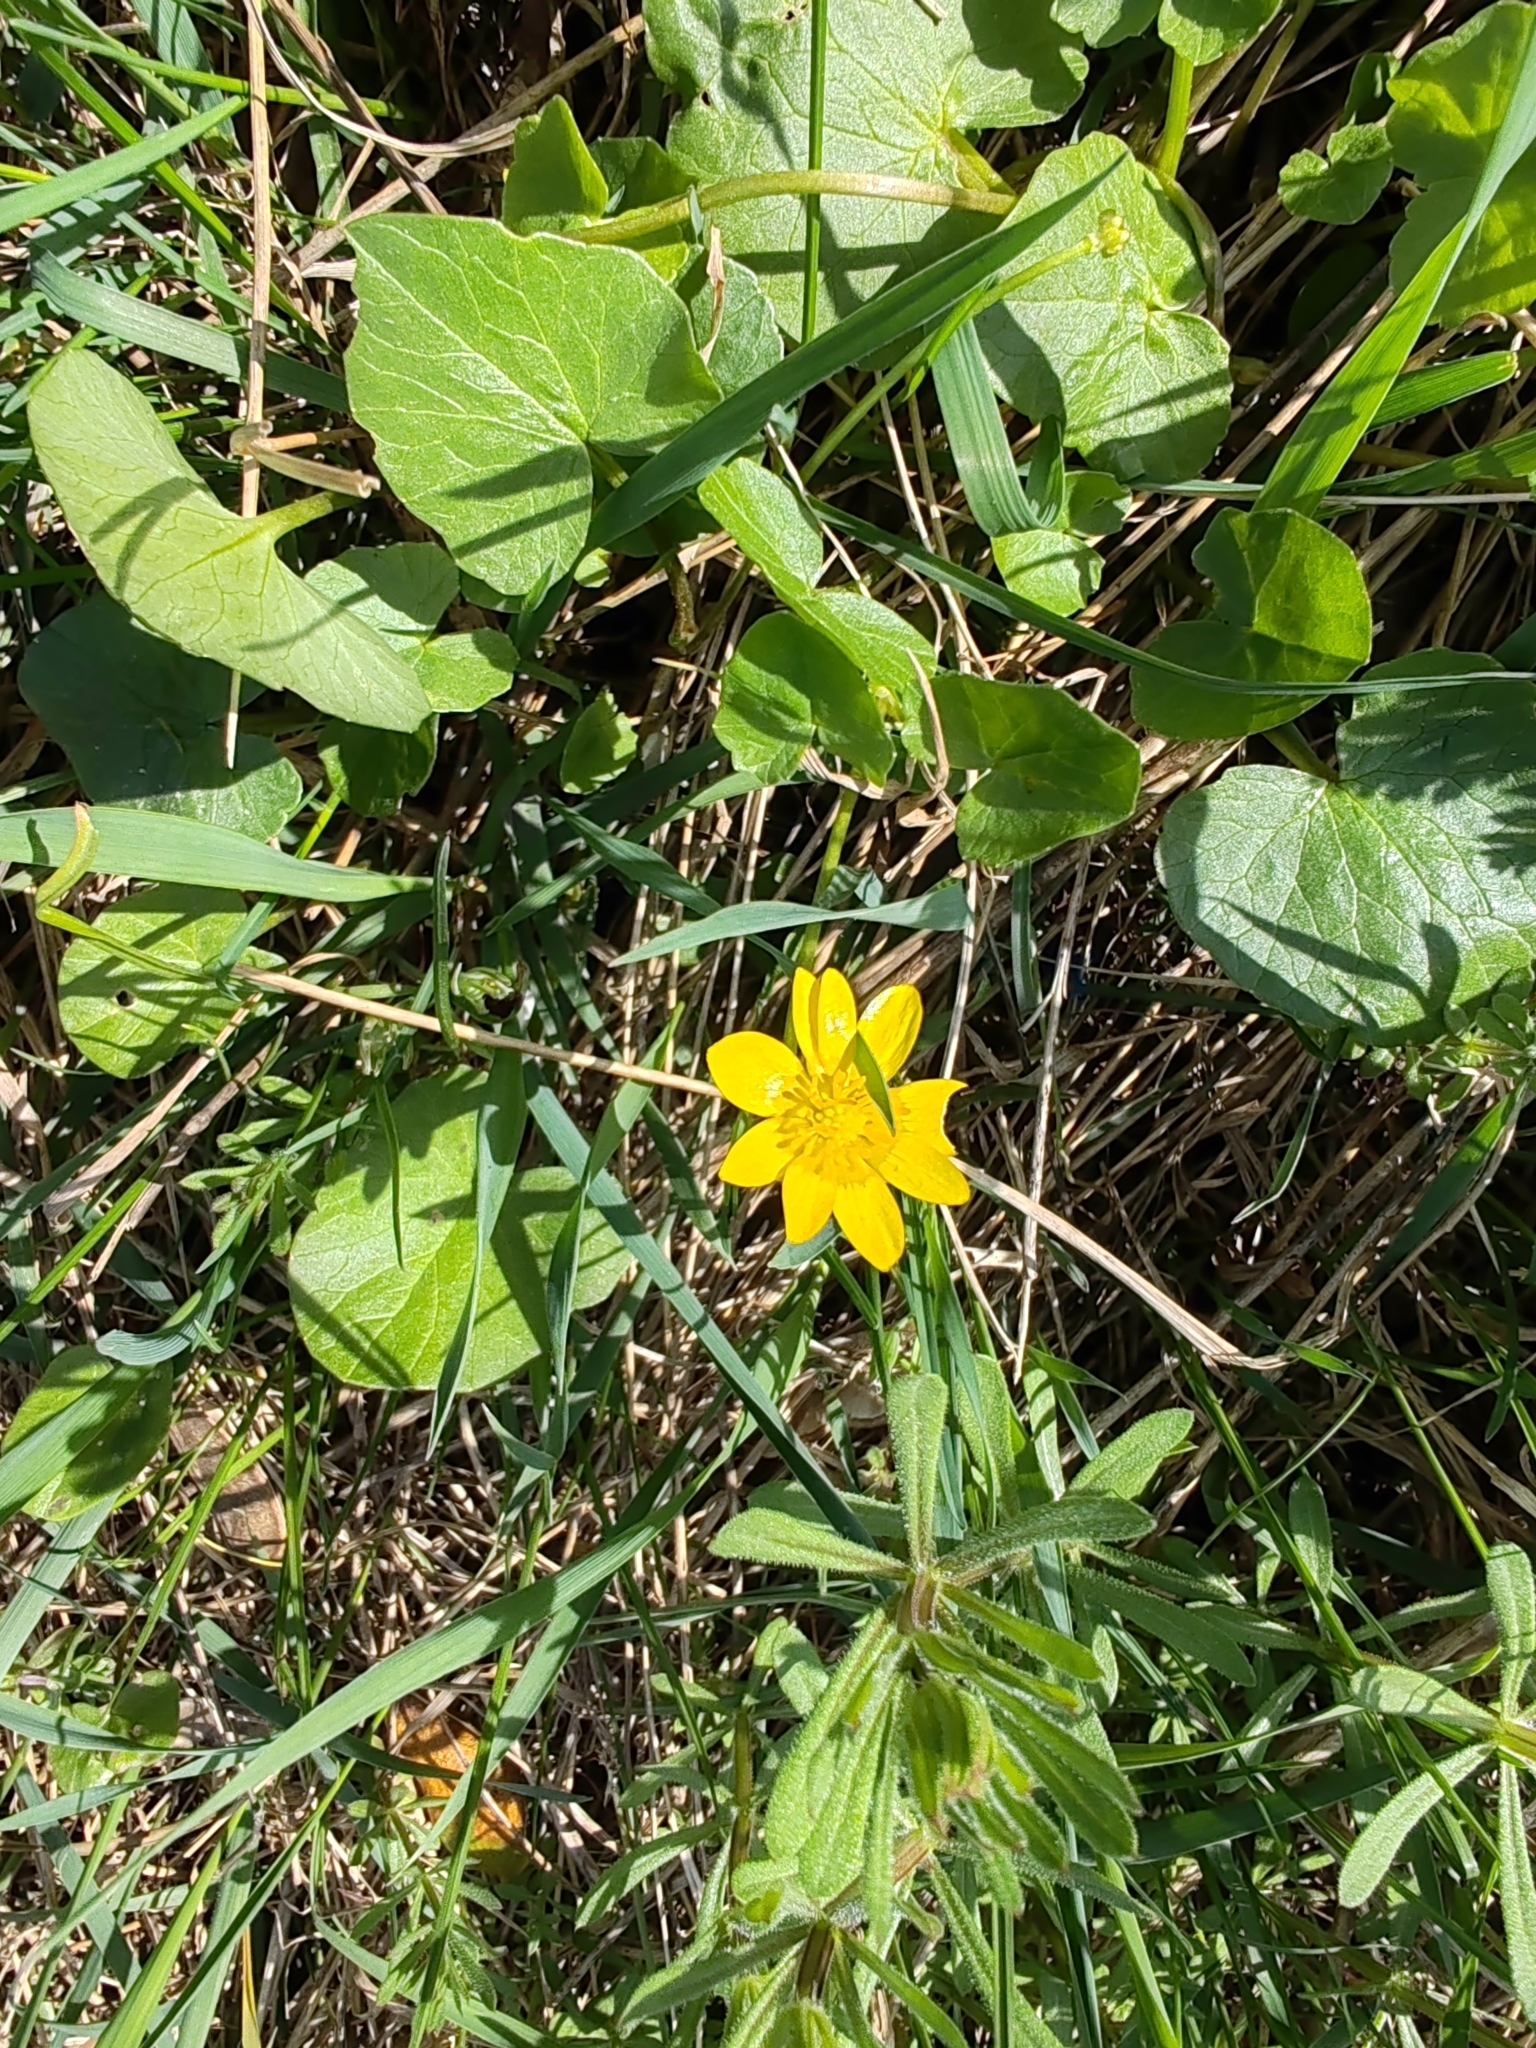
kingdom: Plantae
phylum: Tracheophyta
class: Magnoliopsida
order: Ranunculales
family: Ranunculaceae
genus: Ficaria
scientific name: Ficaria verna
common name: Lesser celandine
